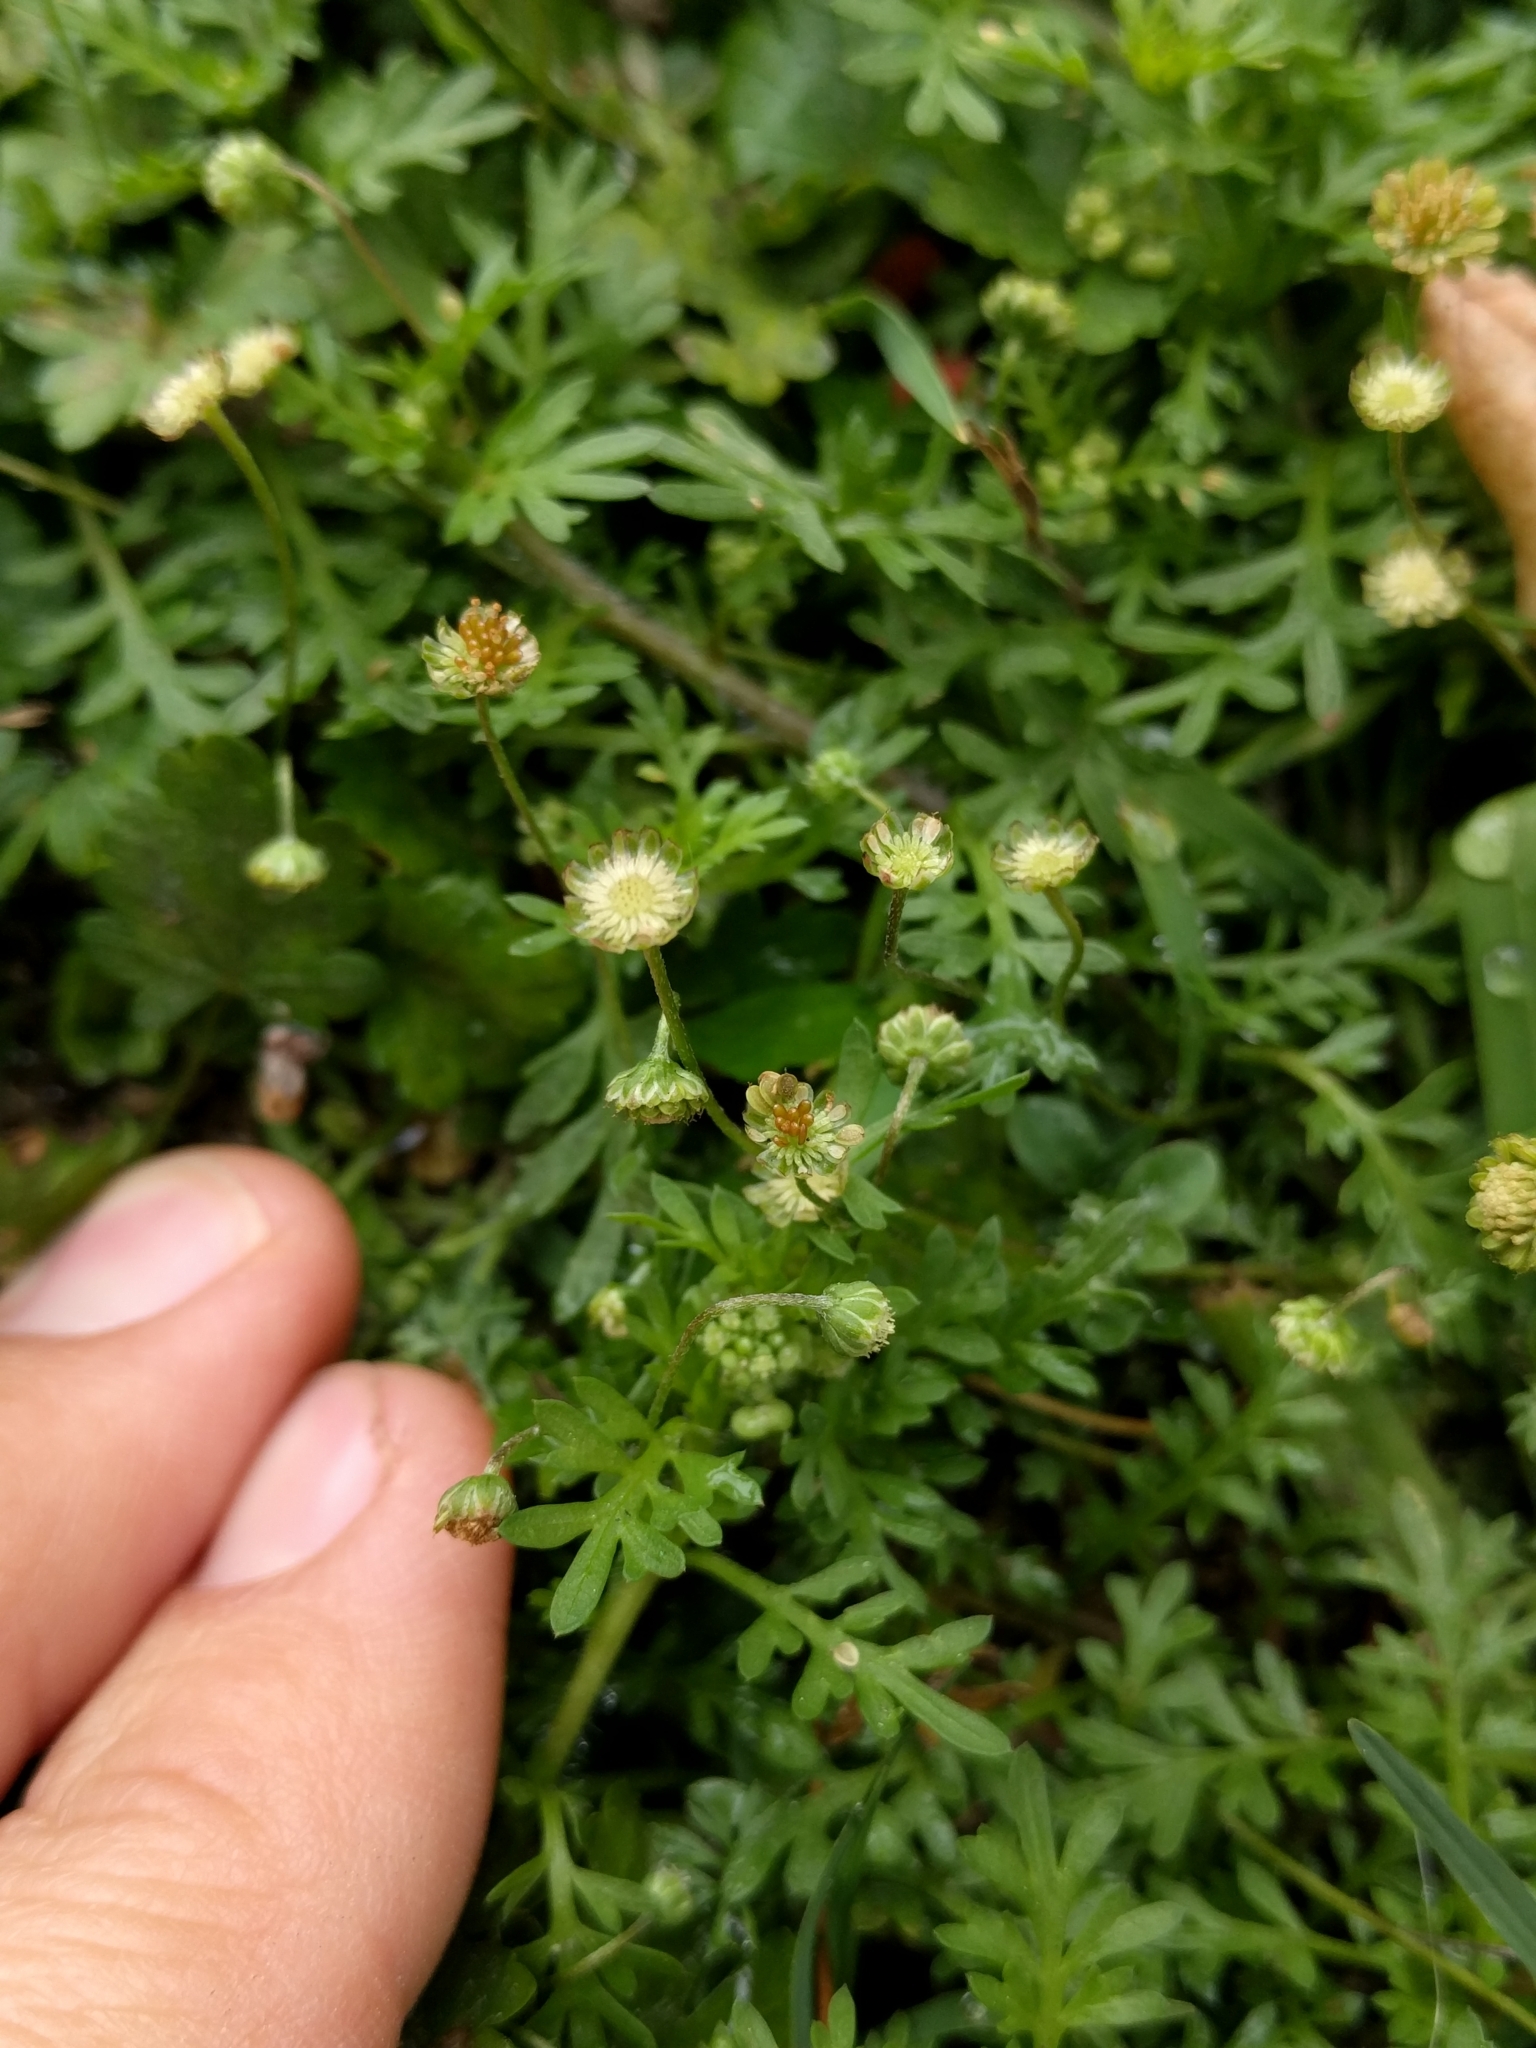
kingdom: Plantae
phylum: Tracheophyta
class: Magnoliopsida
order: Asterales
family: Asteraceae
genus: Cotula
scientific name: Cotula australis
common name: Australian waterbuttons
